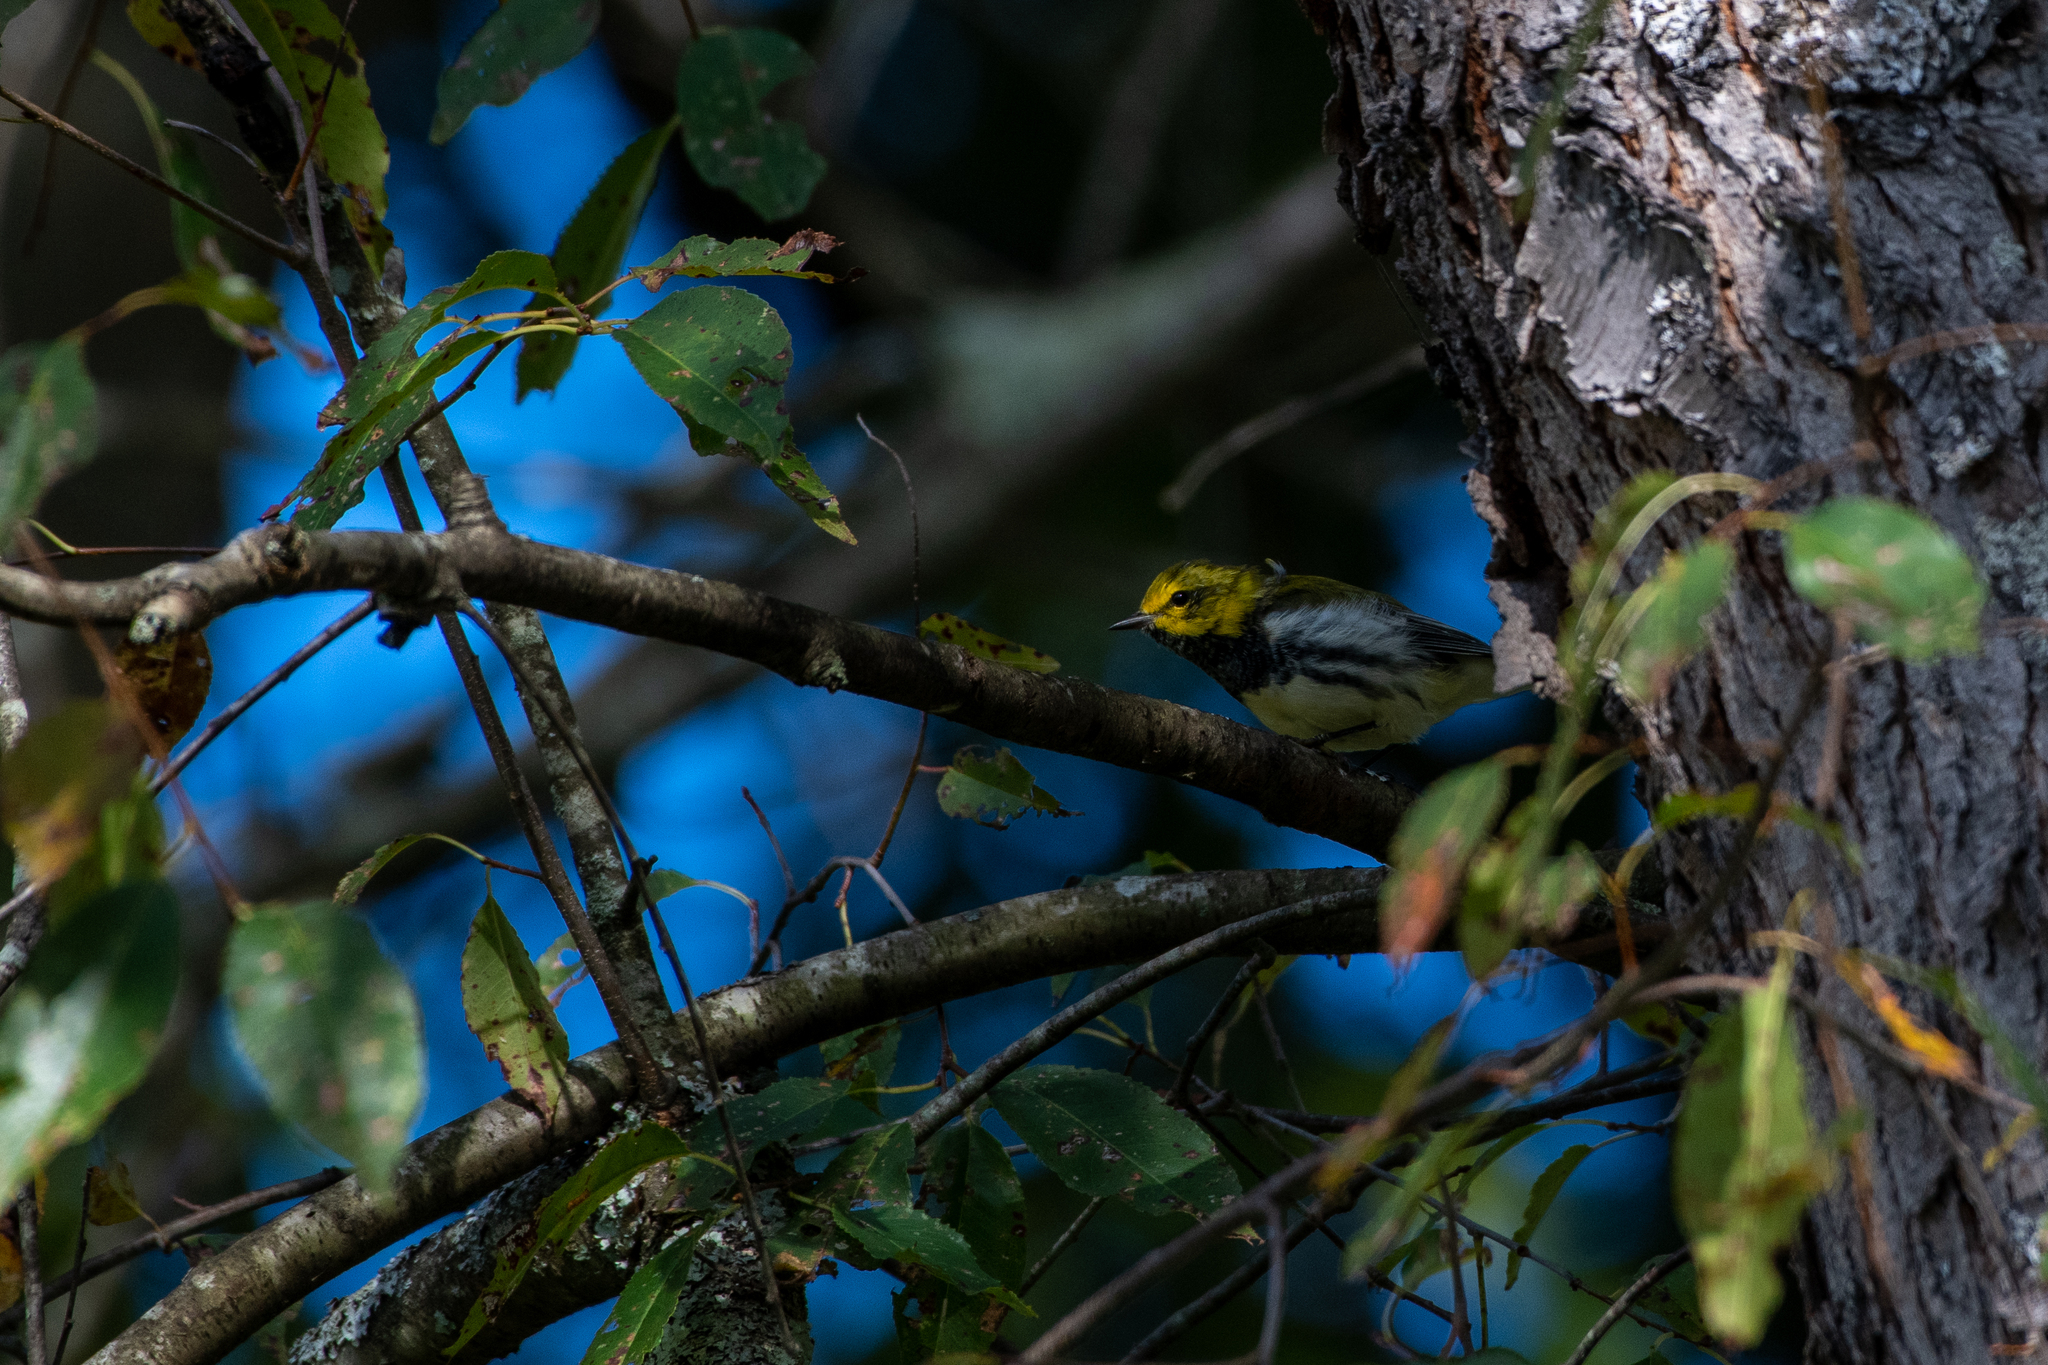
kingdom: Animalia
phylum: Chordata
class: Aves
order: Passeriformes
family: Parulidae
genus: Setophaga
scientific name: Setophaga virens
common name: Black-throated green warbler
